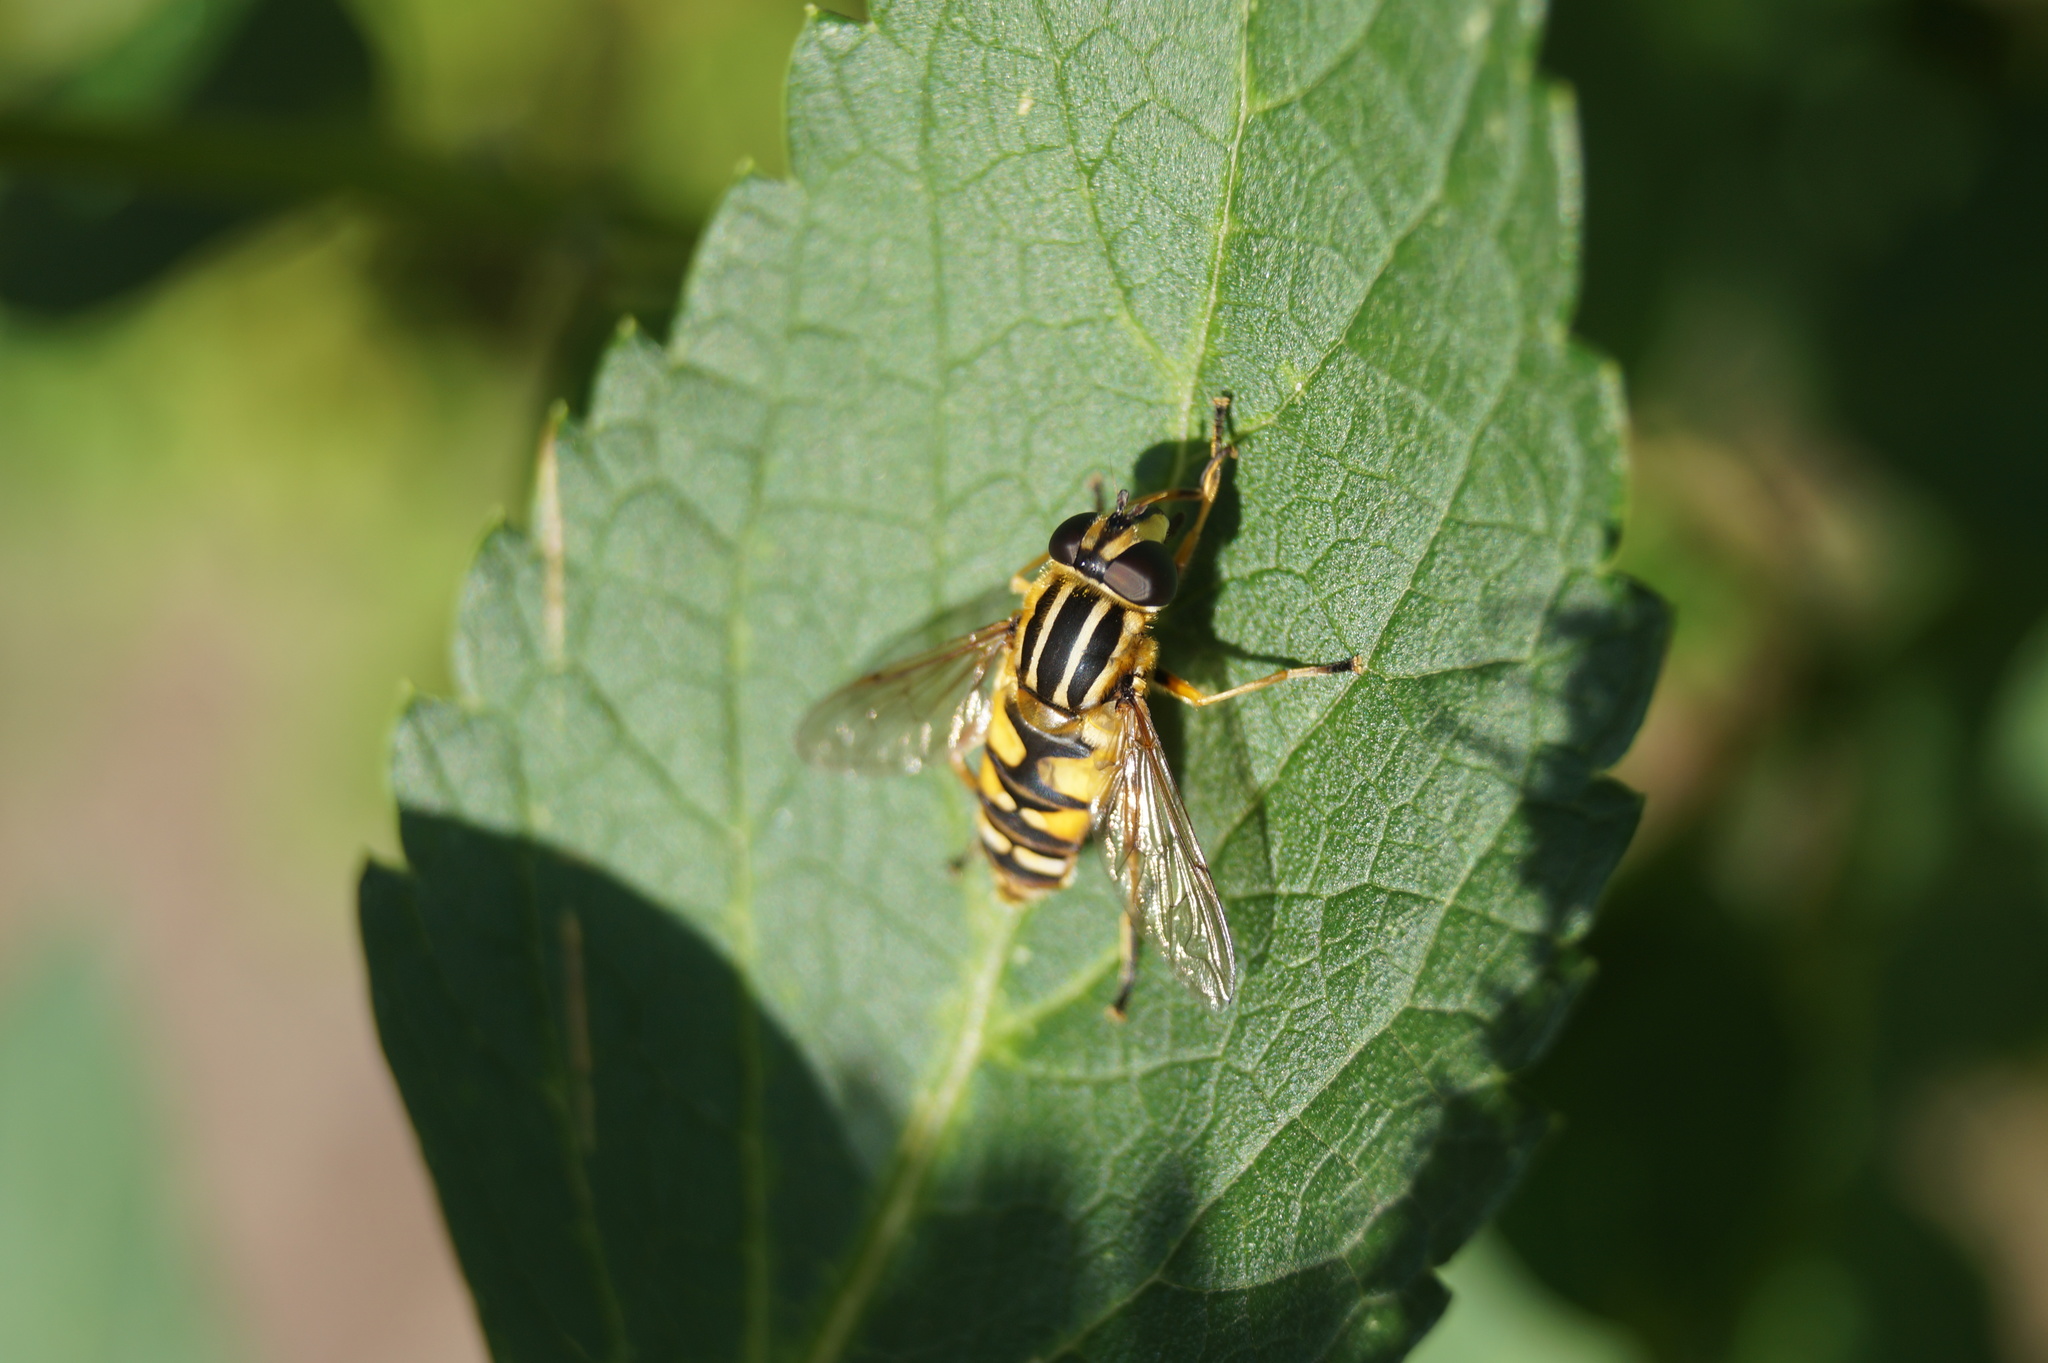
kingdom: Animalia
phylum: Arthropoda
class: Insecta
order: Diptera
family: Syrphidae
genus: Helophilus
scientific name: Helophilus pendulus
